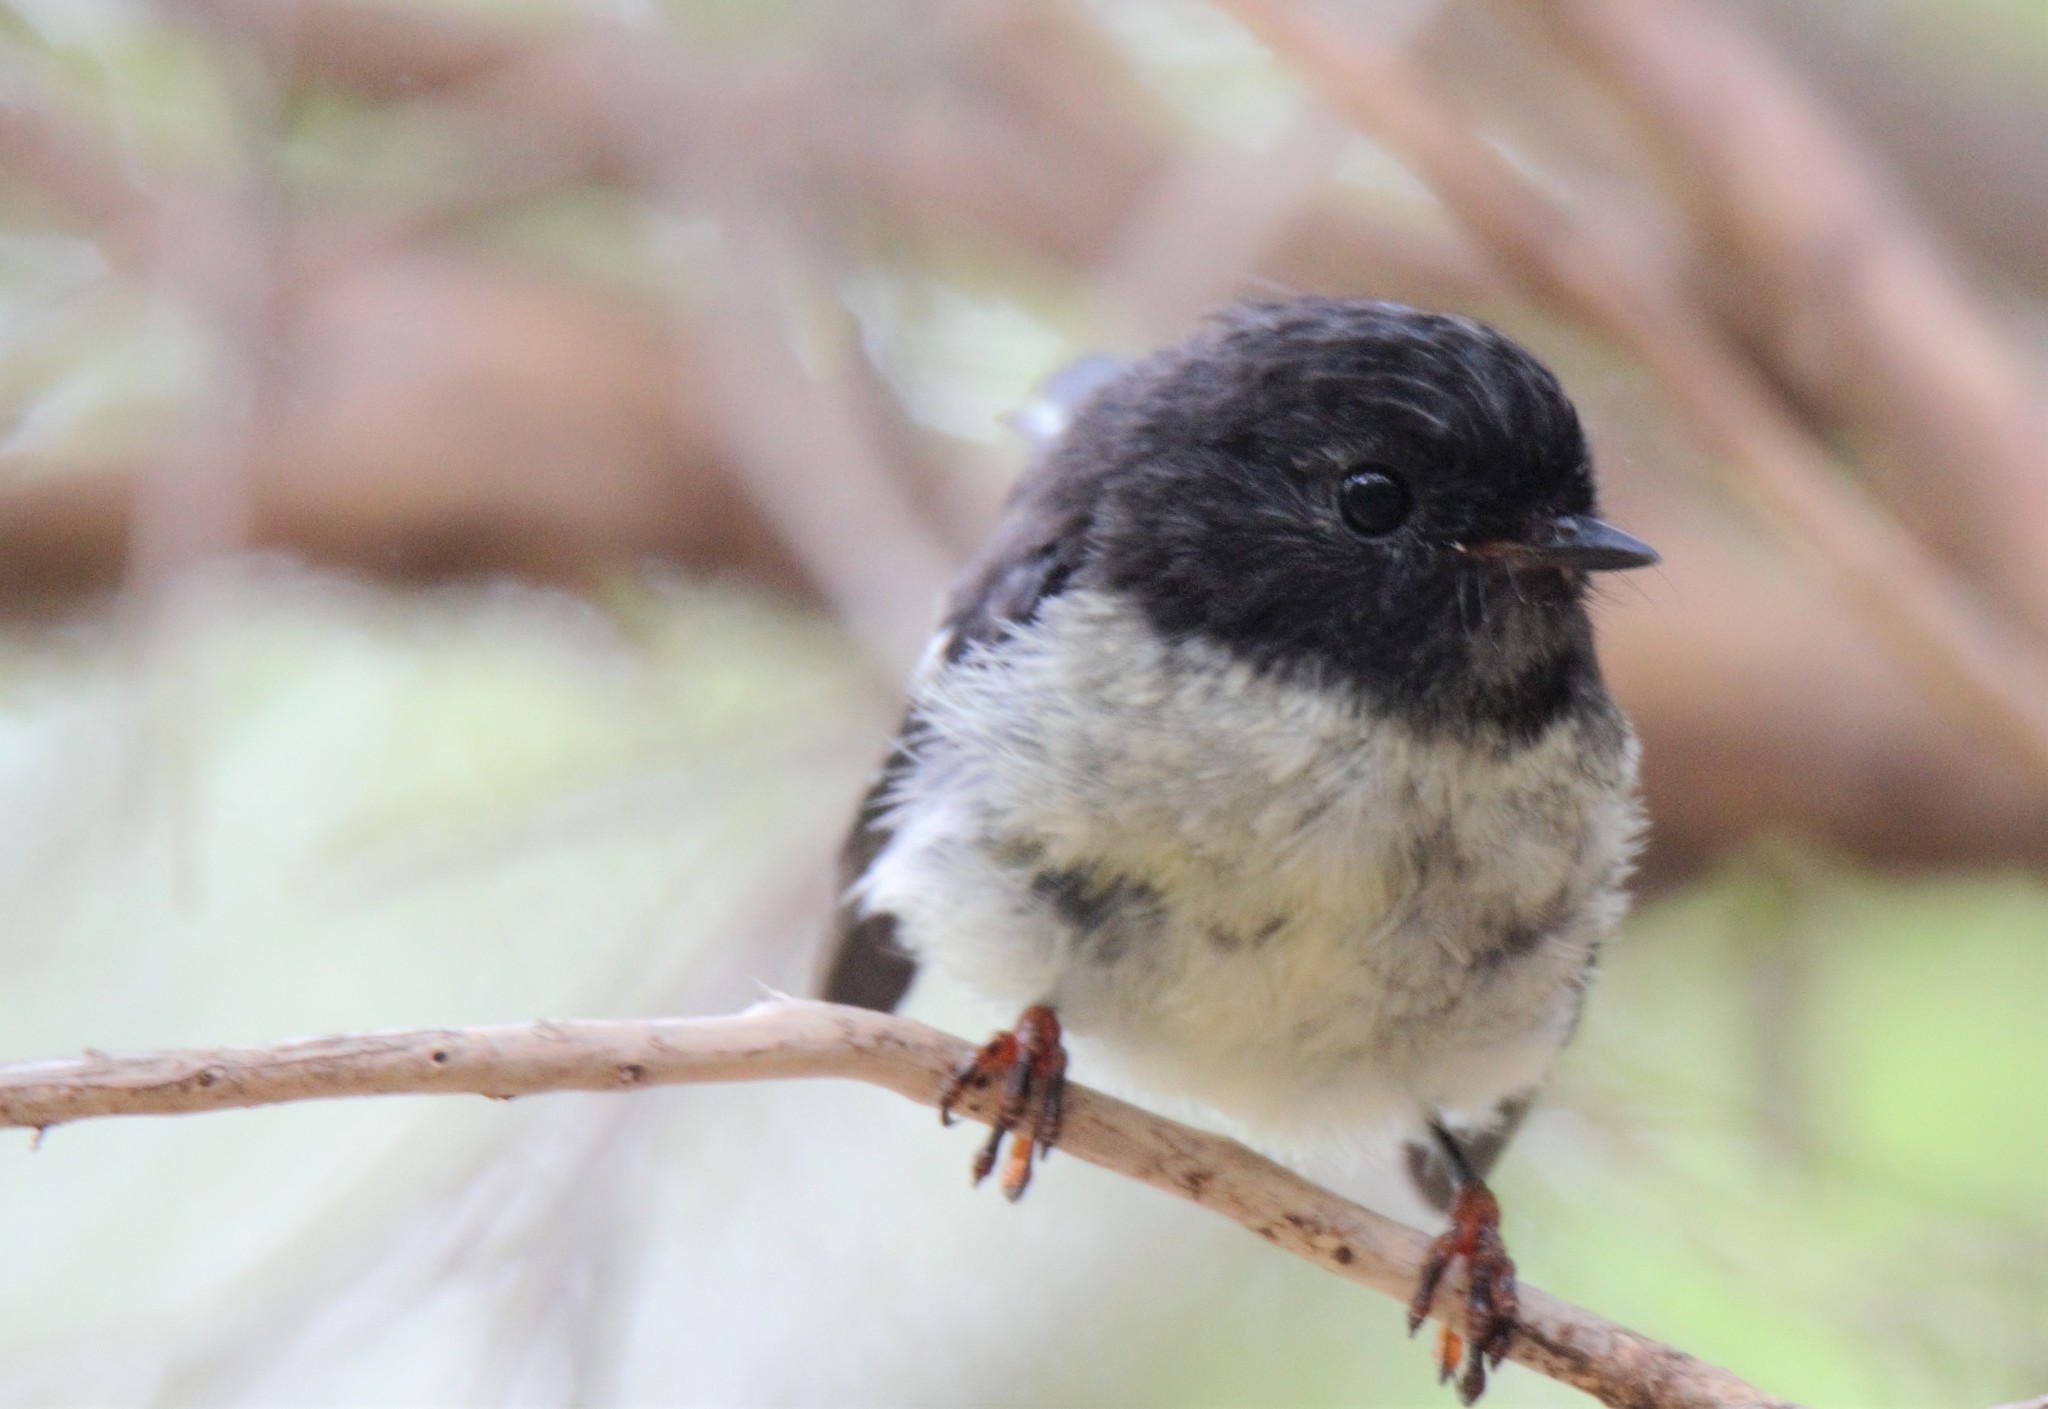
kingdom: Animalia
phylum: Chordata
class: Aves
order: Passeriformes
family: Petroicidae
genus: Petroica
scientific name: Petroica macrocephala
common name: Tomtit
